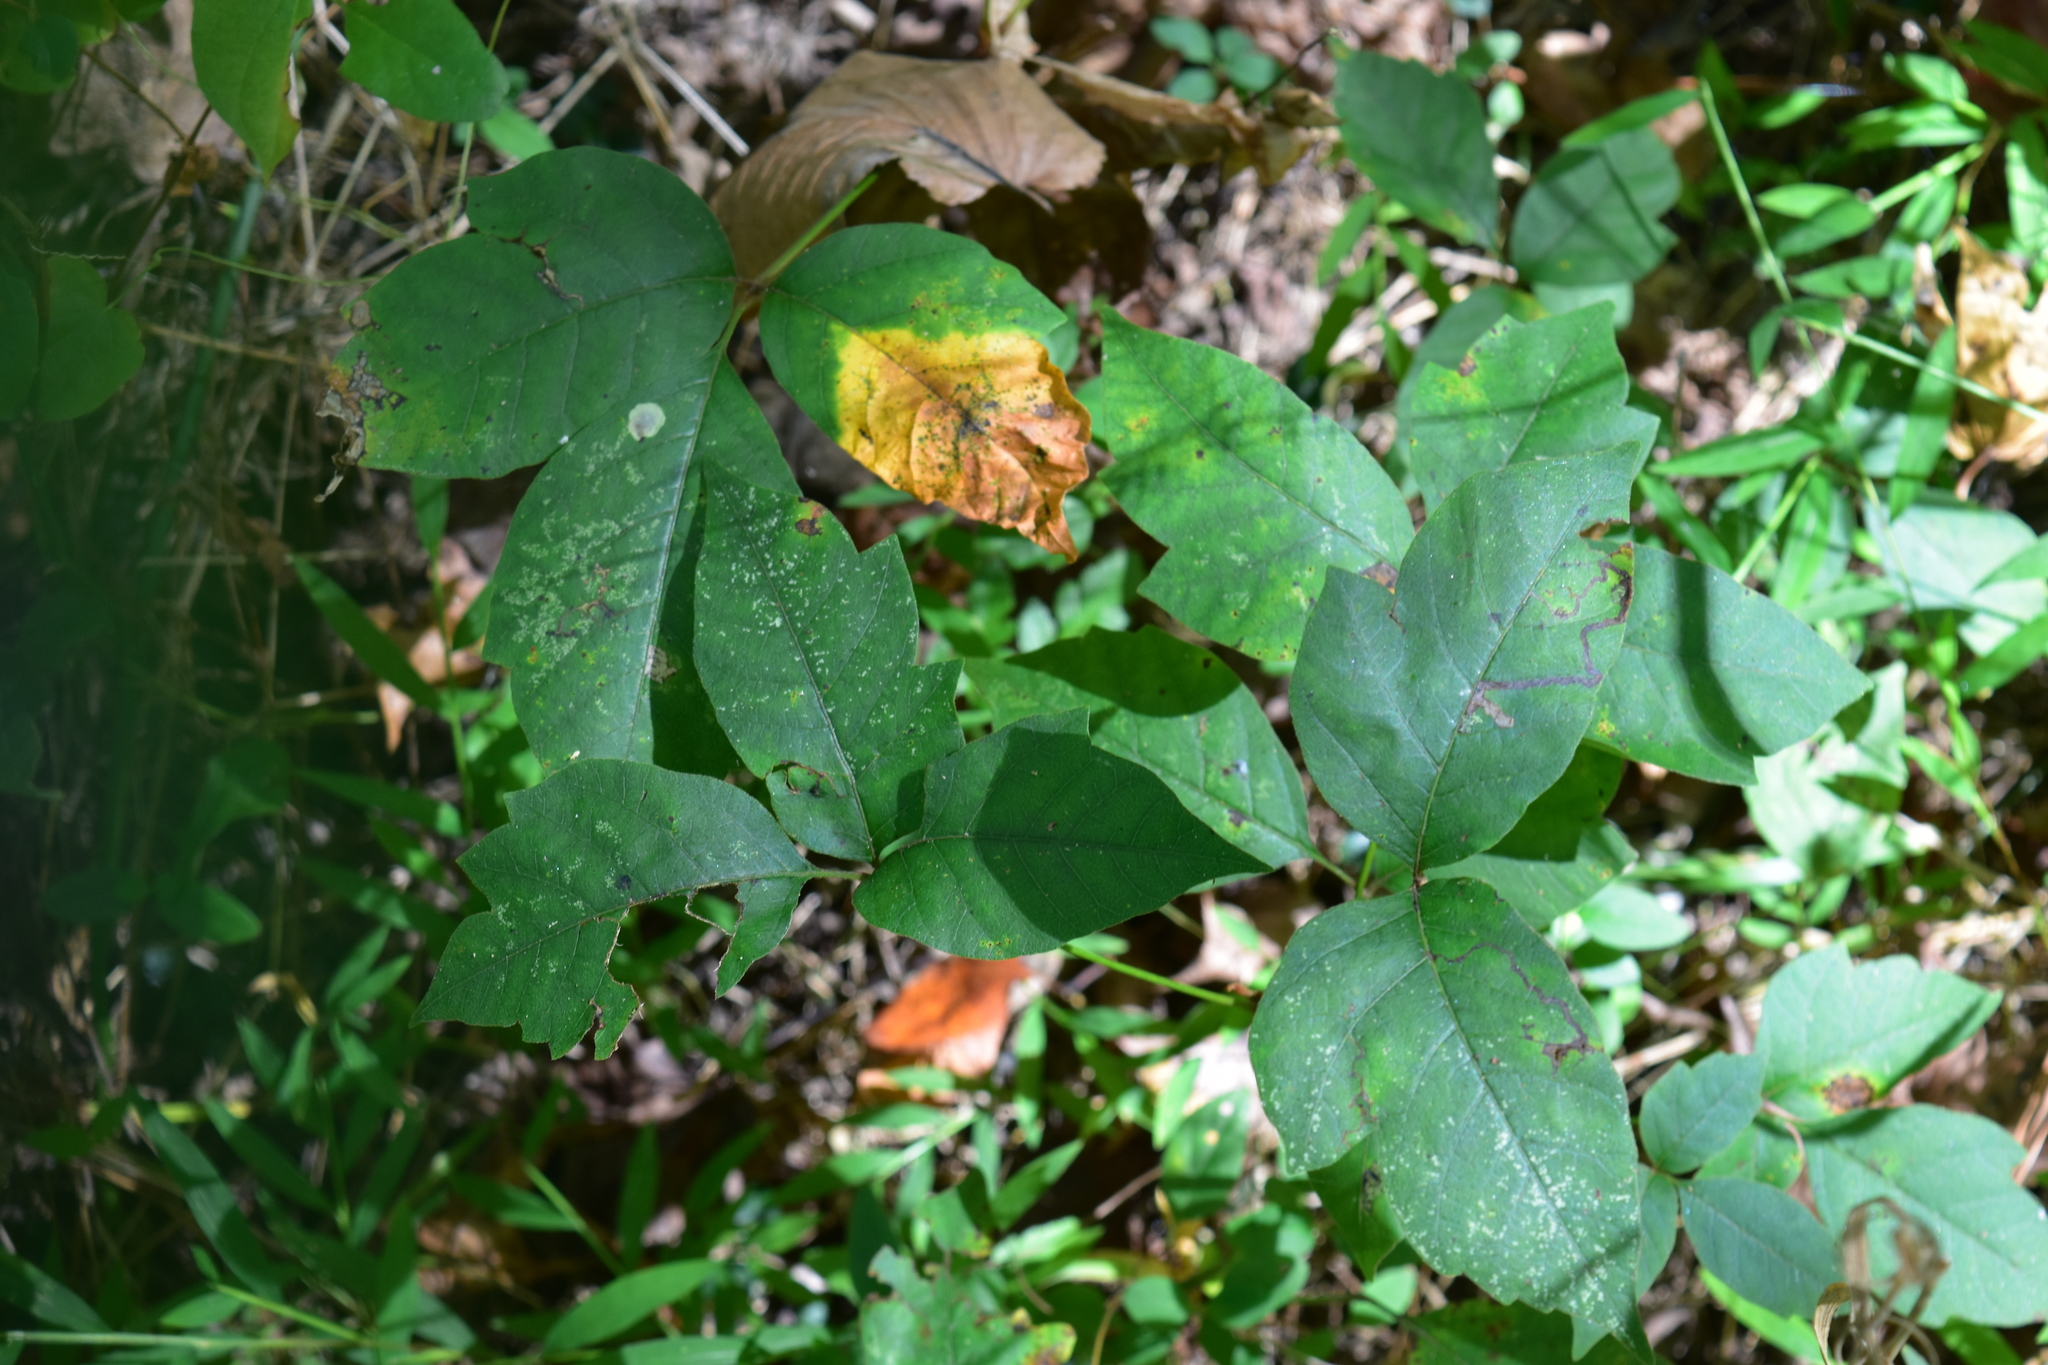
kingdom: Plantae
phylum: Tracheophyta
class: Magnoliopsida
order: Sapindales
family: Anacardiaceae
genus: Toxicodendron
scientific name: Toxicodendron radicans
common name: Poison ivy
